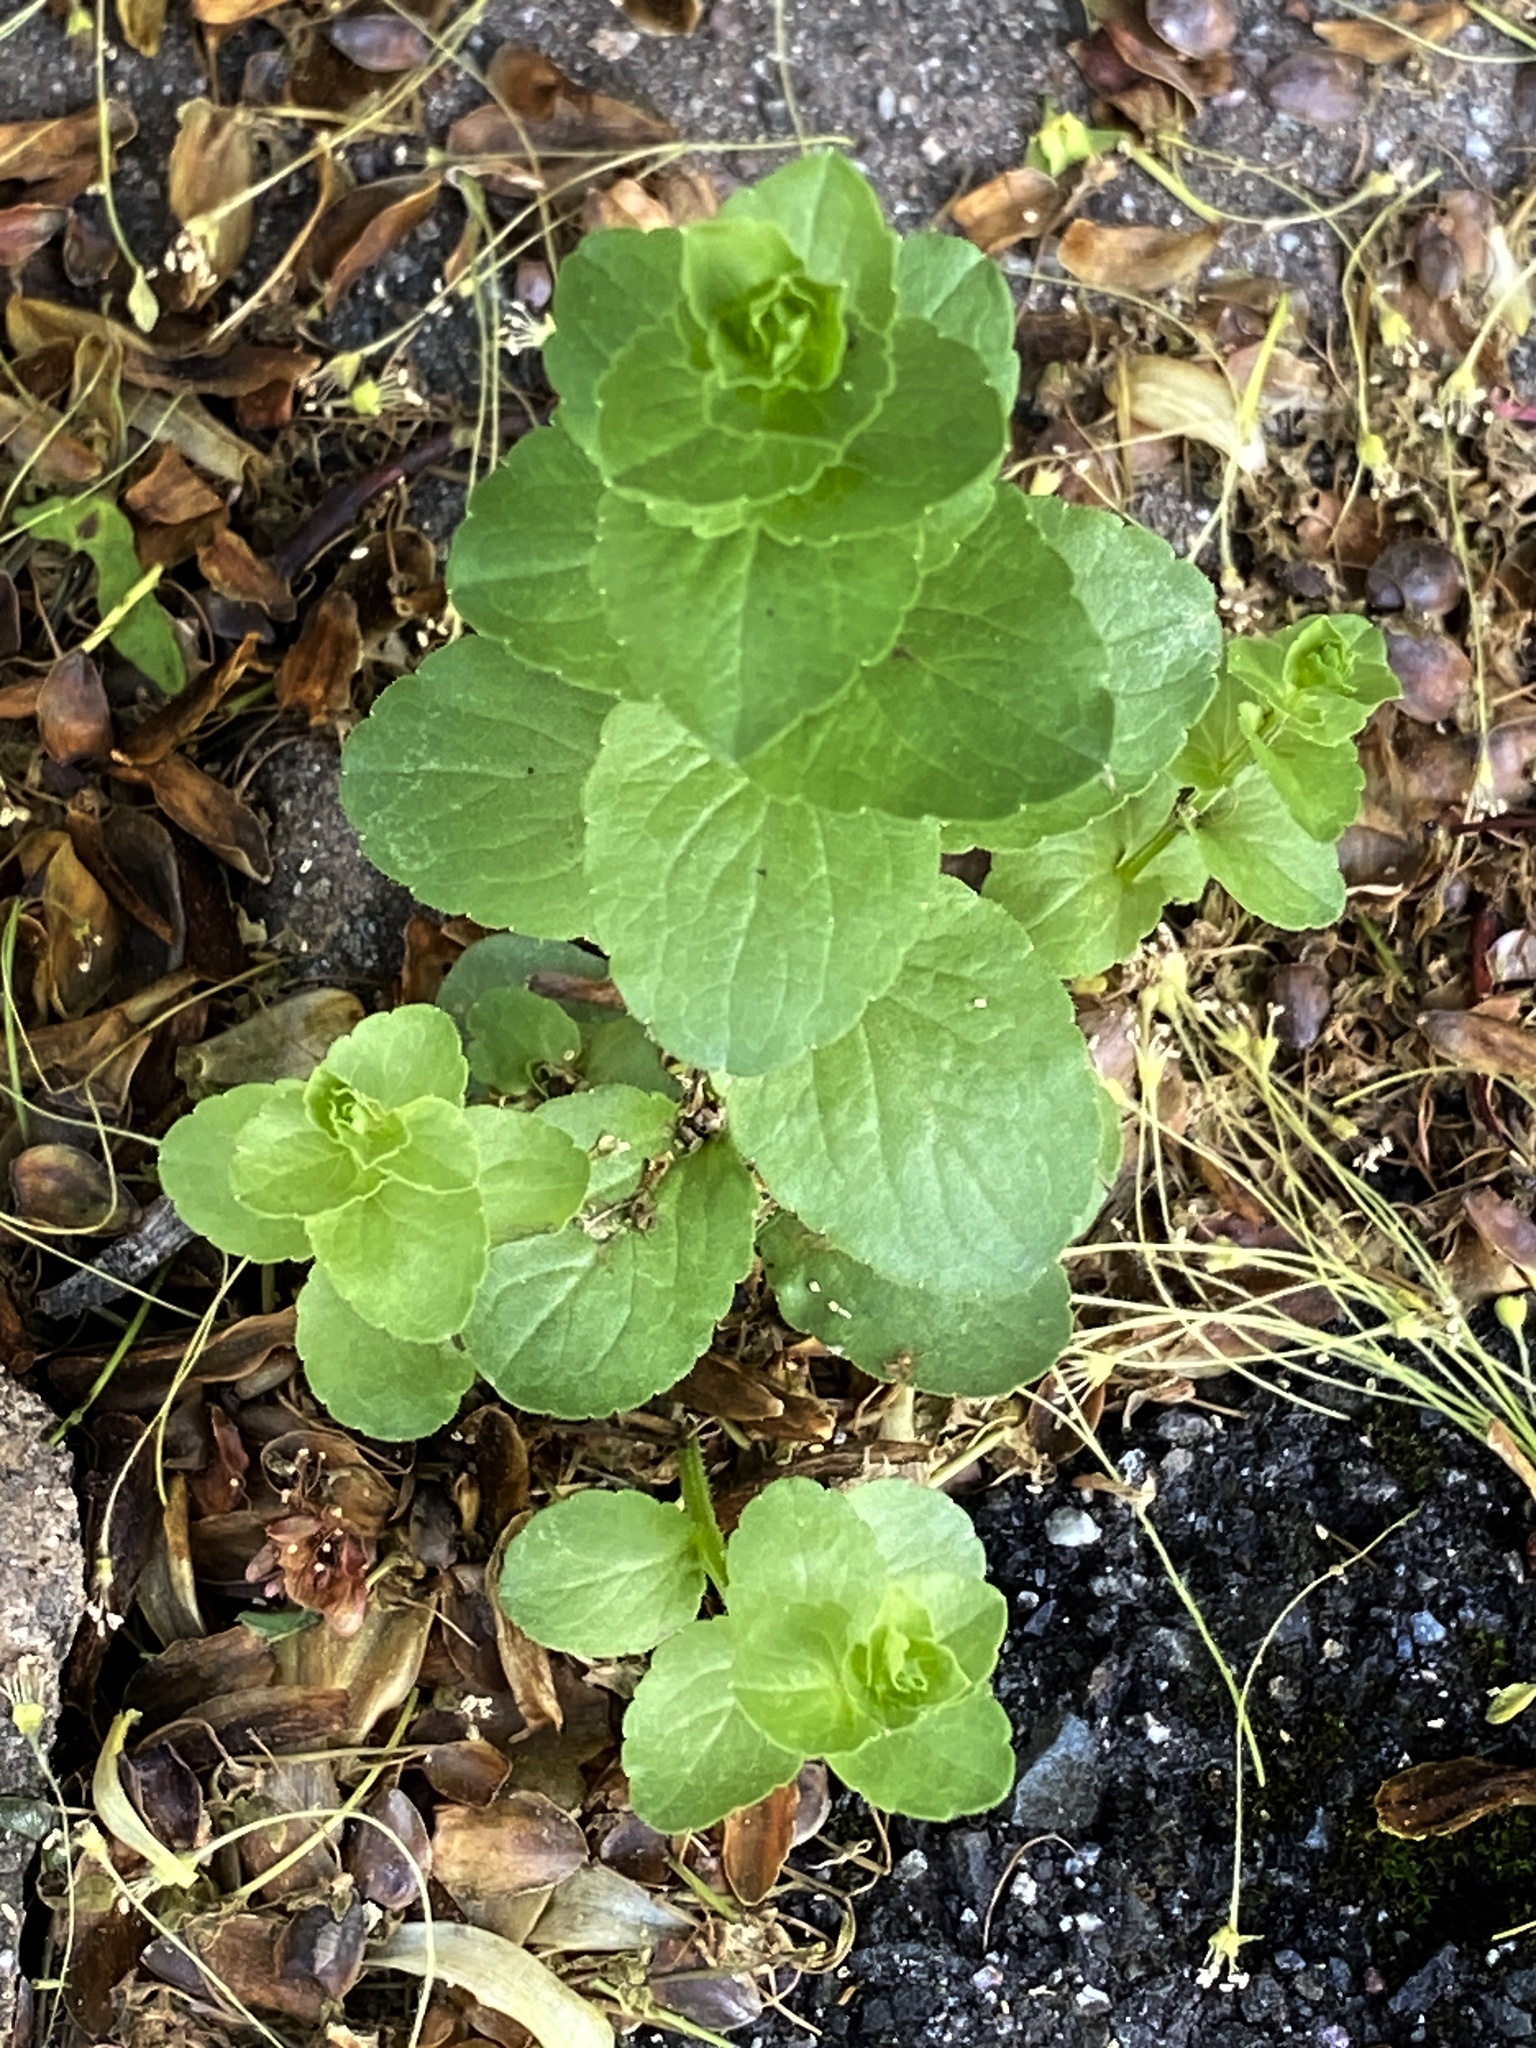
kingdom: Plantae
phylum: Tracheophyta
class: Magnoliopsida
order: Asterales
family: Campanulaceae
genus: Triodanis
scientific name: Triodanis perfoliata
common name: Clasping venus' looking-glass
